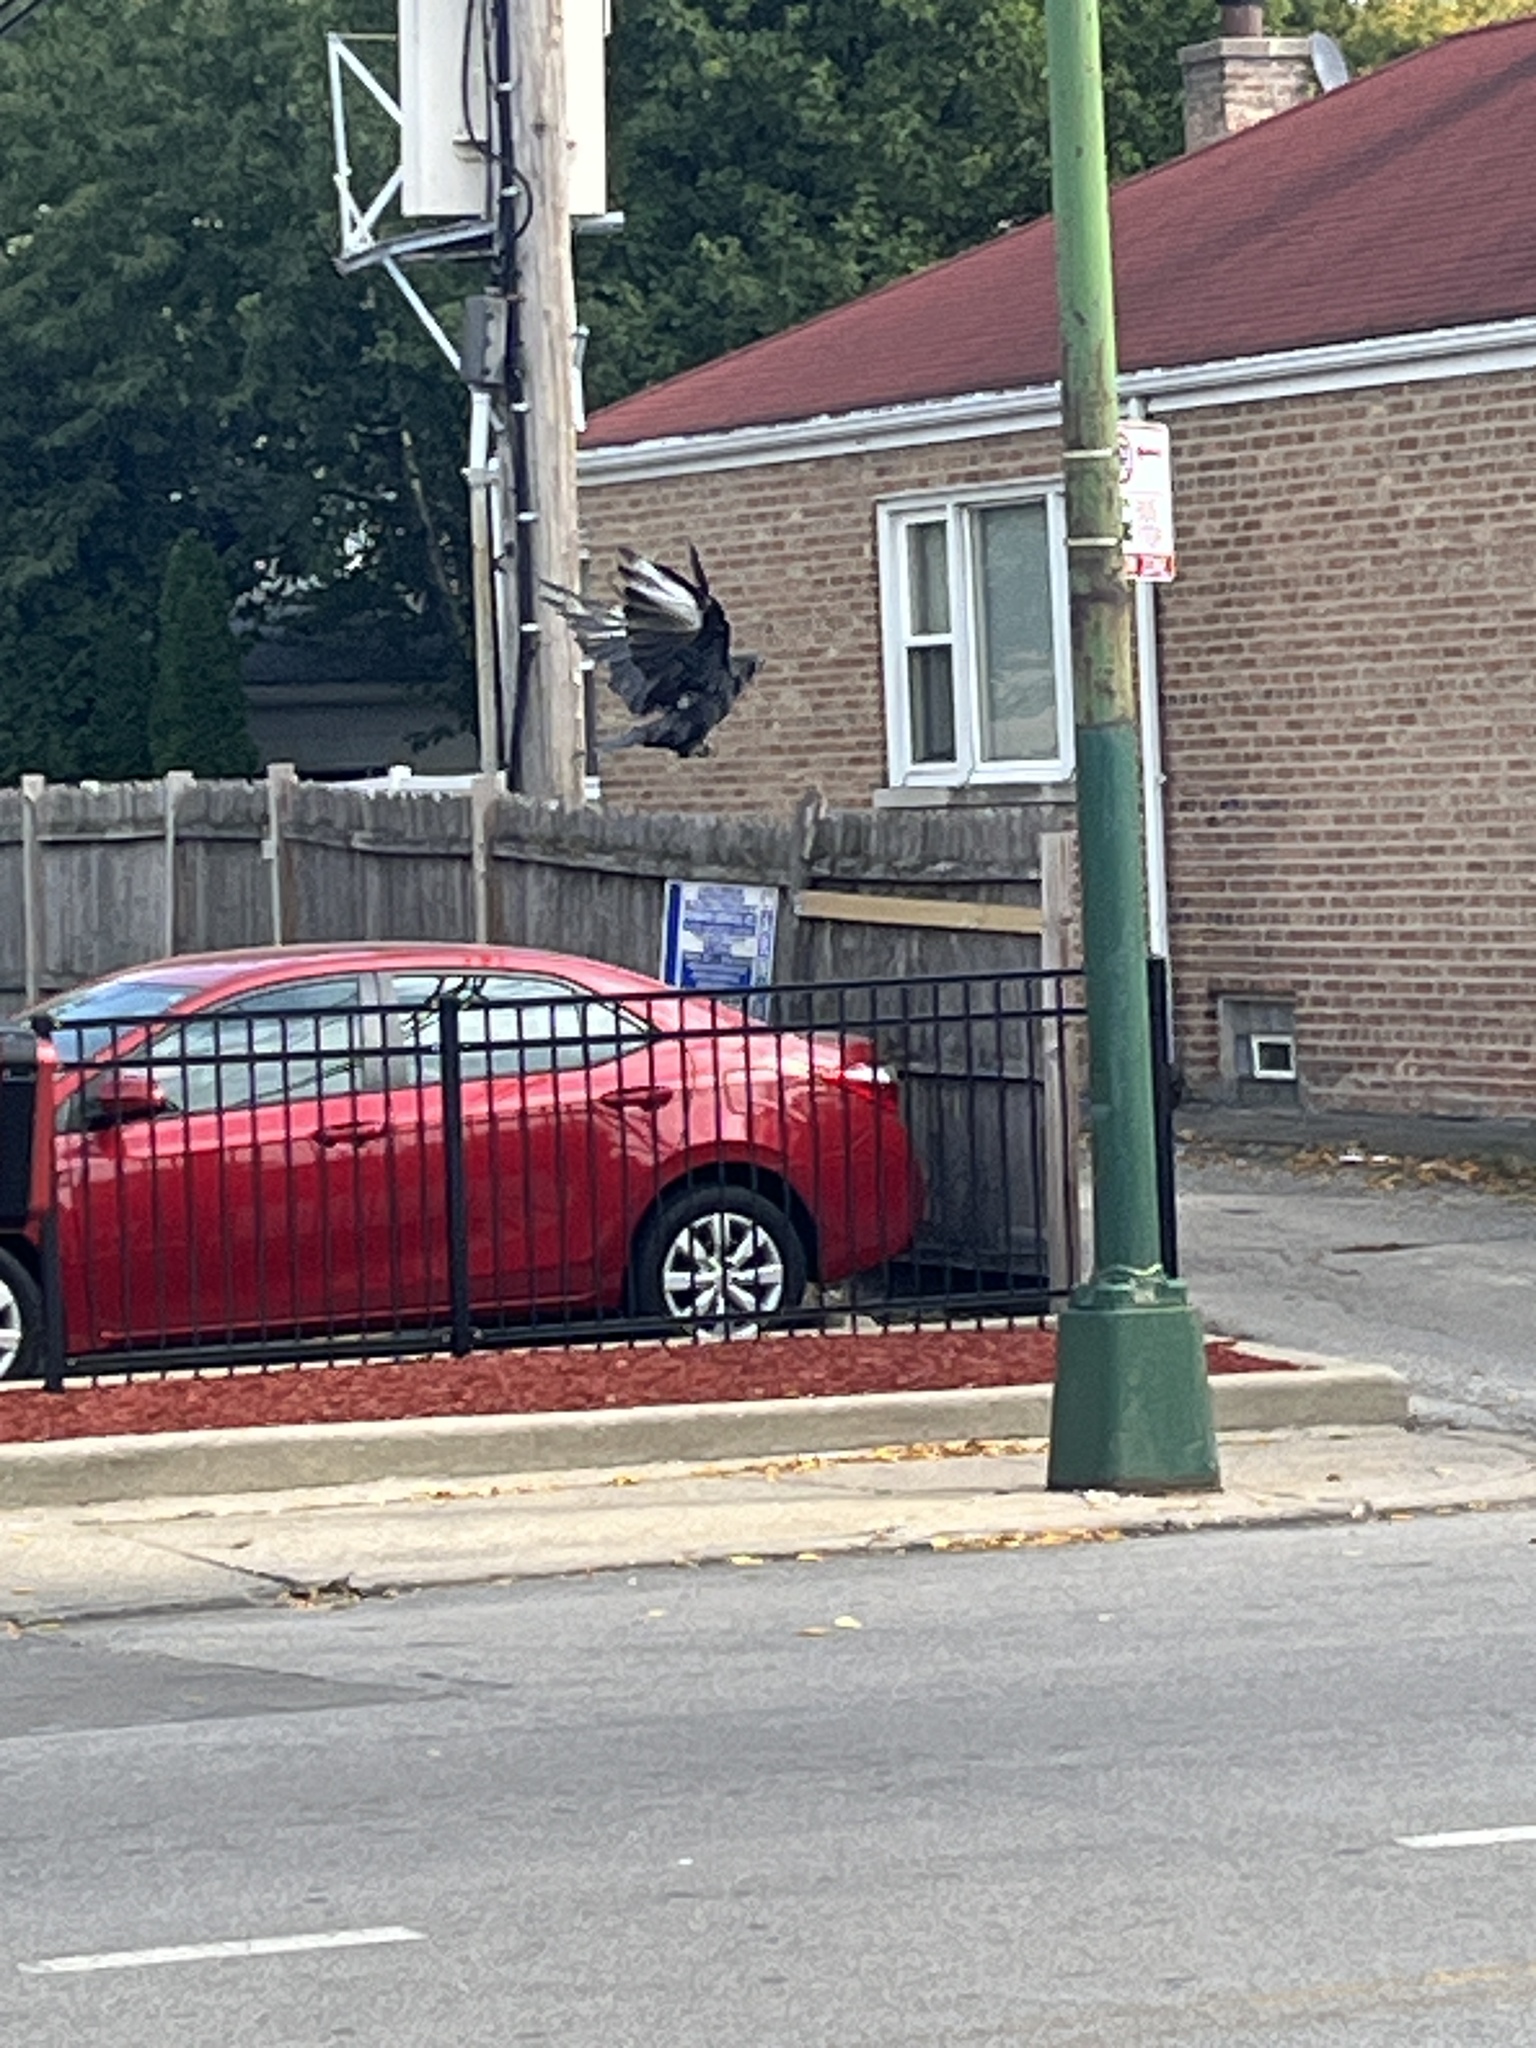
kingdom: Animalia
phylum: Chordata
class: Aves
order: Passeriformes
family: Corvidae
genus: Corvus
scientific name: Corvus brachyrhynchos
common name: American crow
